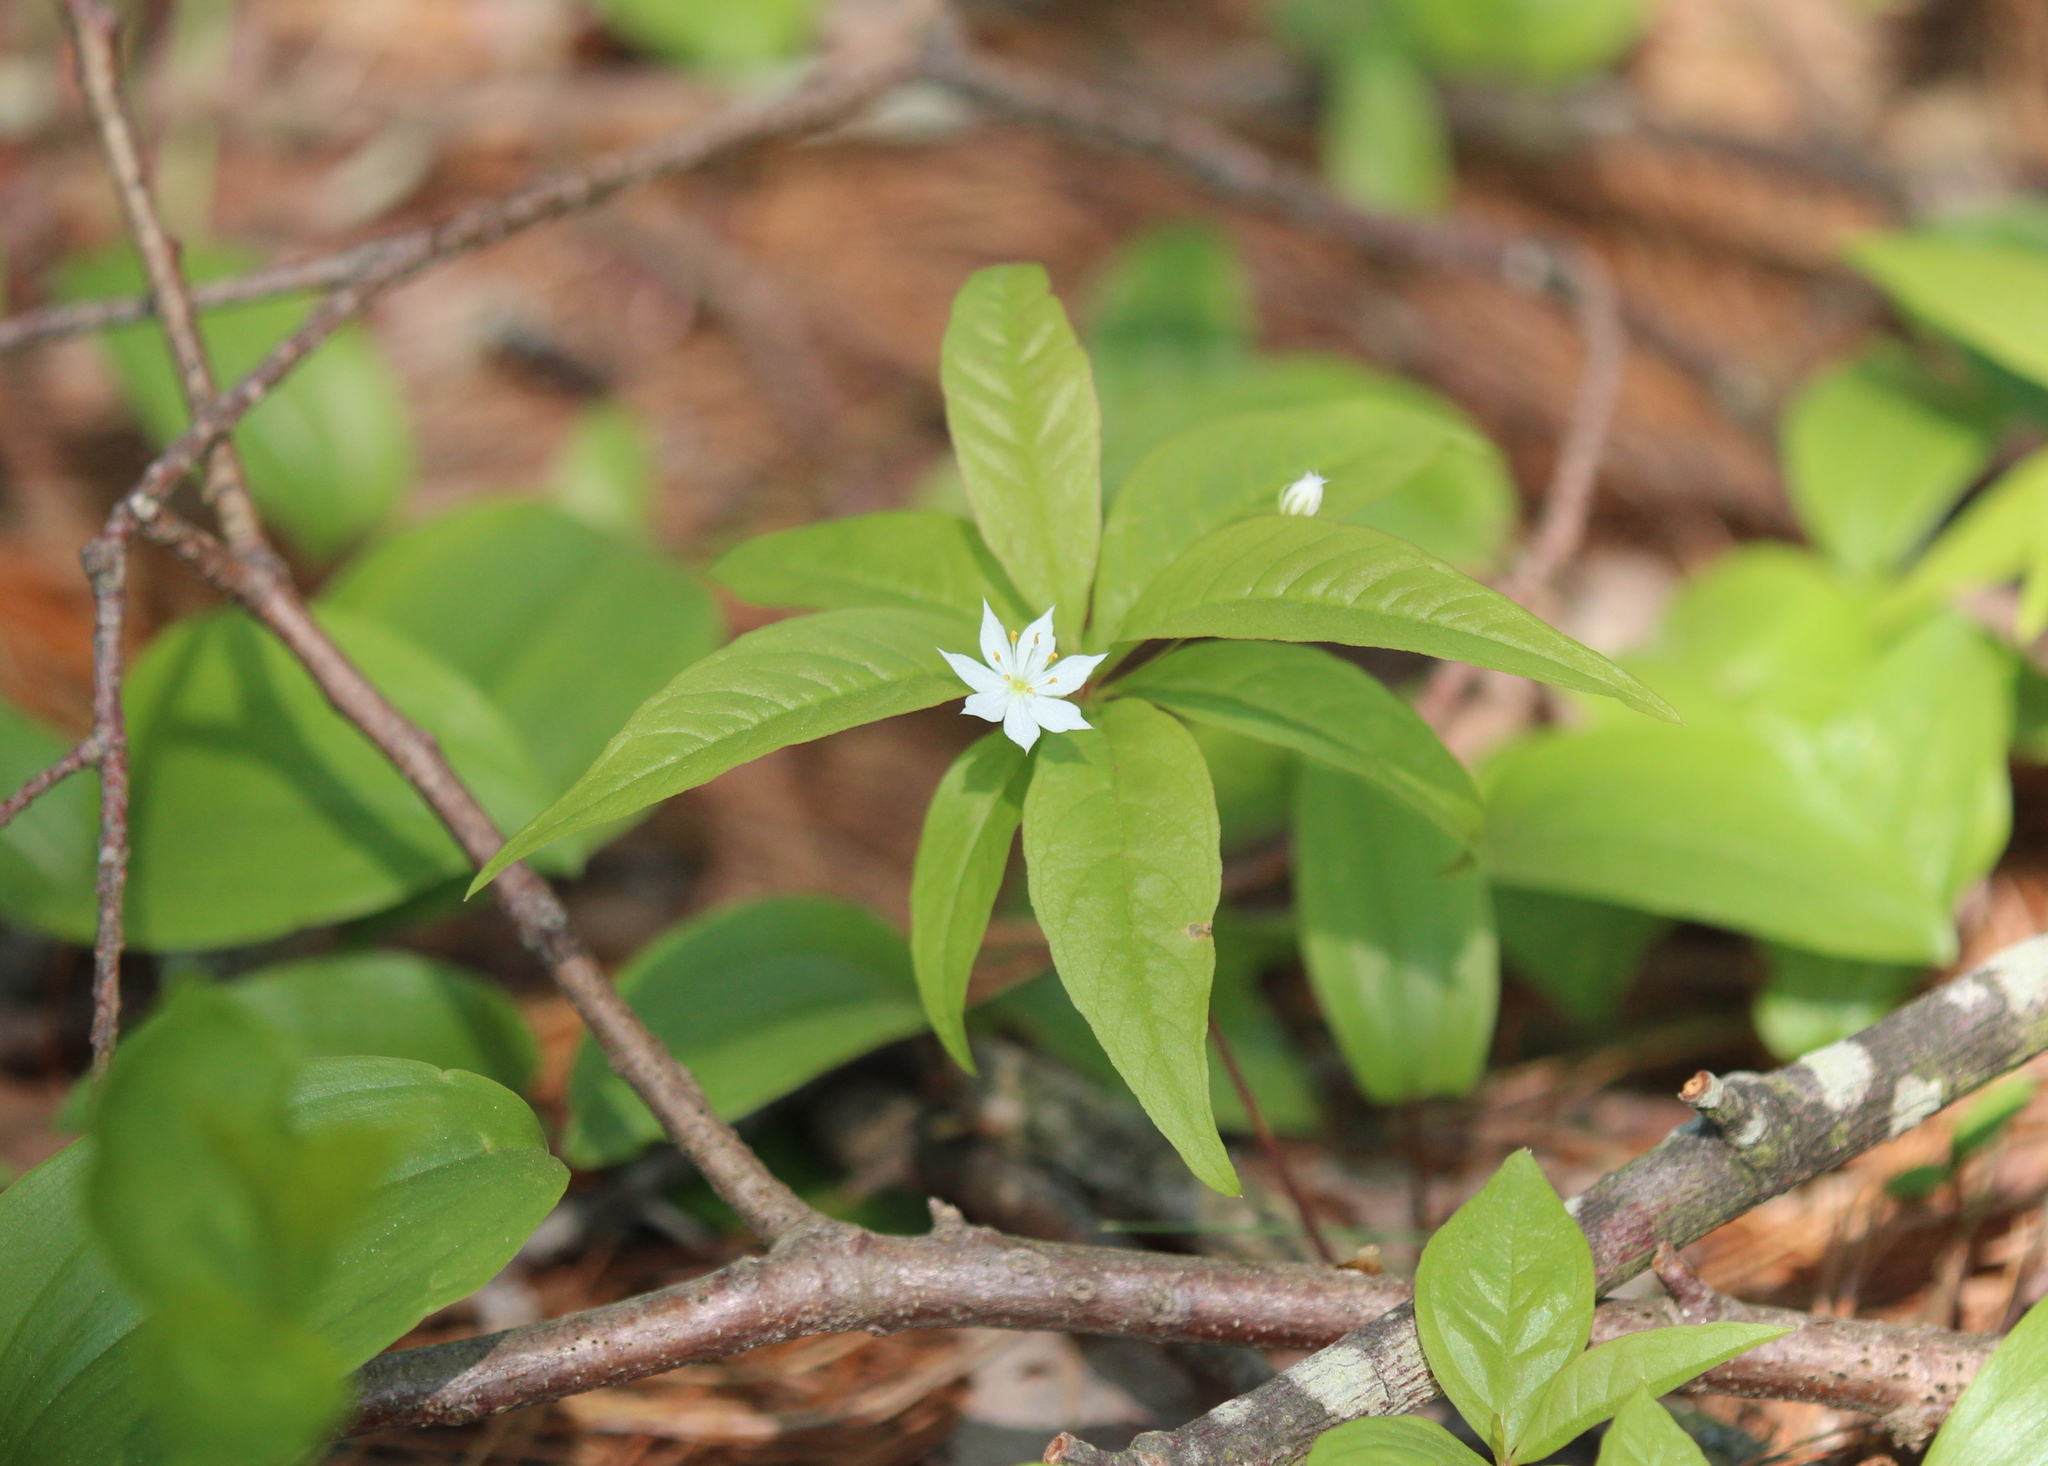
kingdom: Plantae
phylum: Tracheophyta
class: Magnoliopsida
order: Ericales
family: Primulaceae
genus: Lysimachia
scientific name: Lysimachia borealis
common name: American starflower
